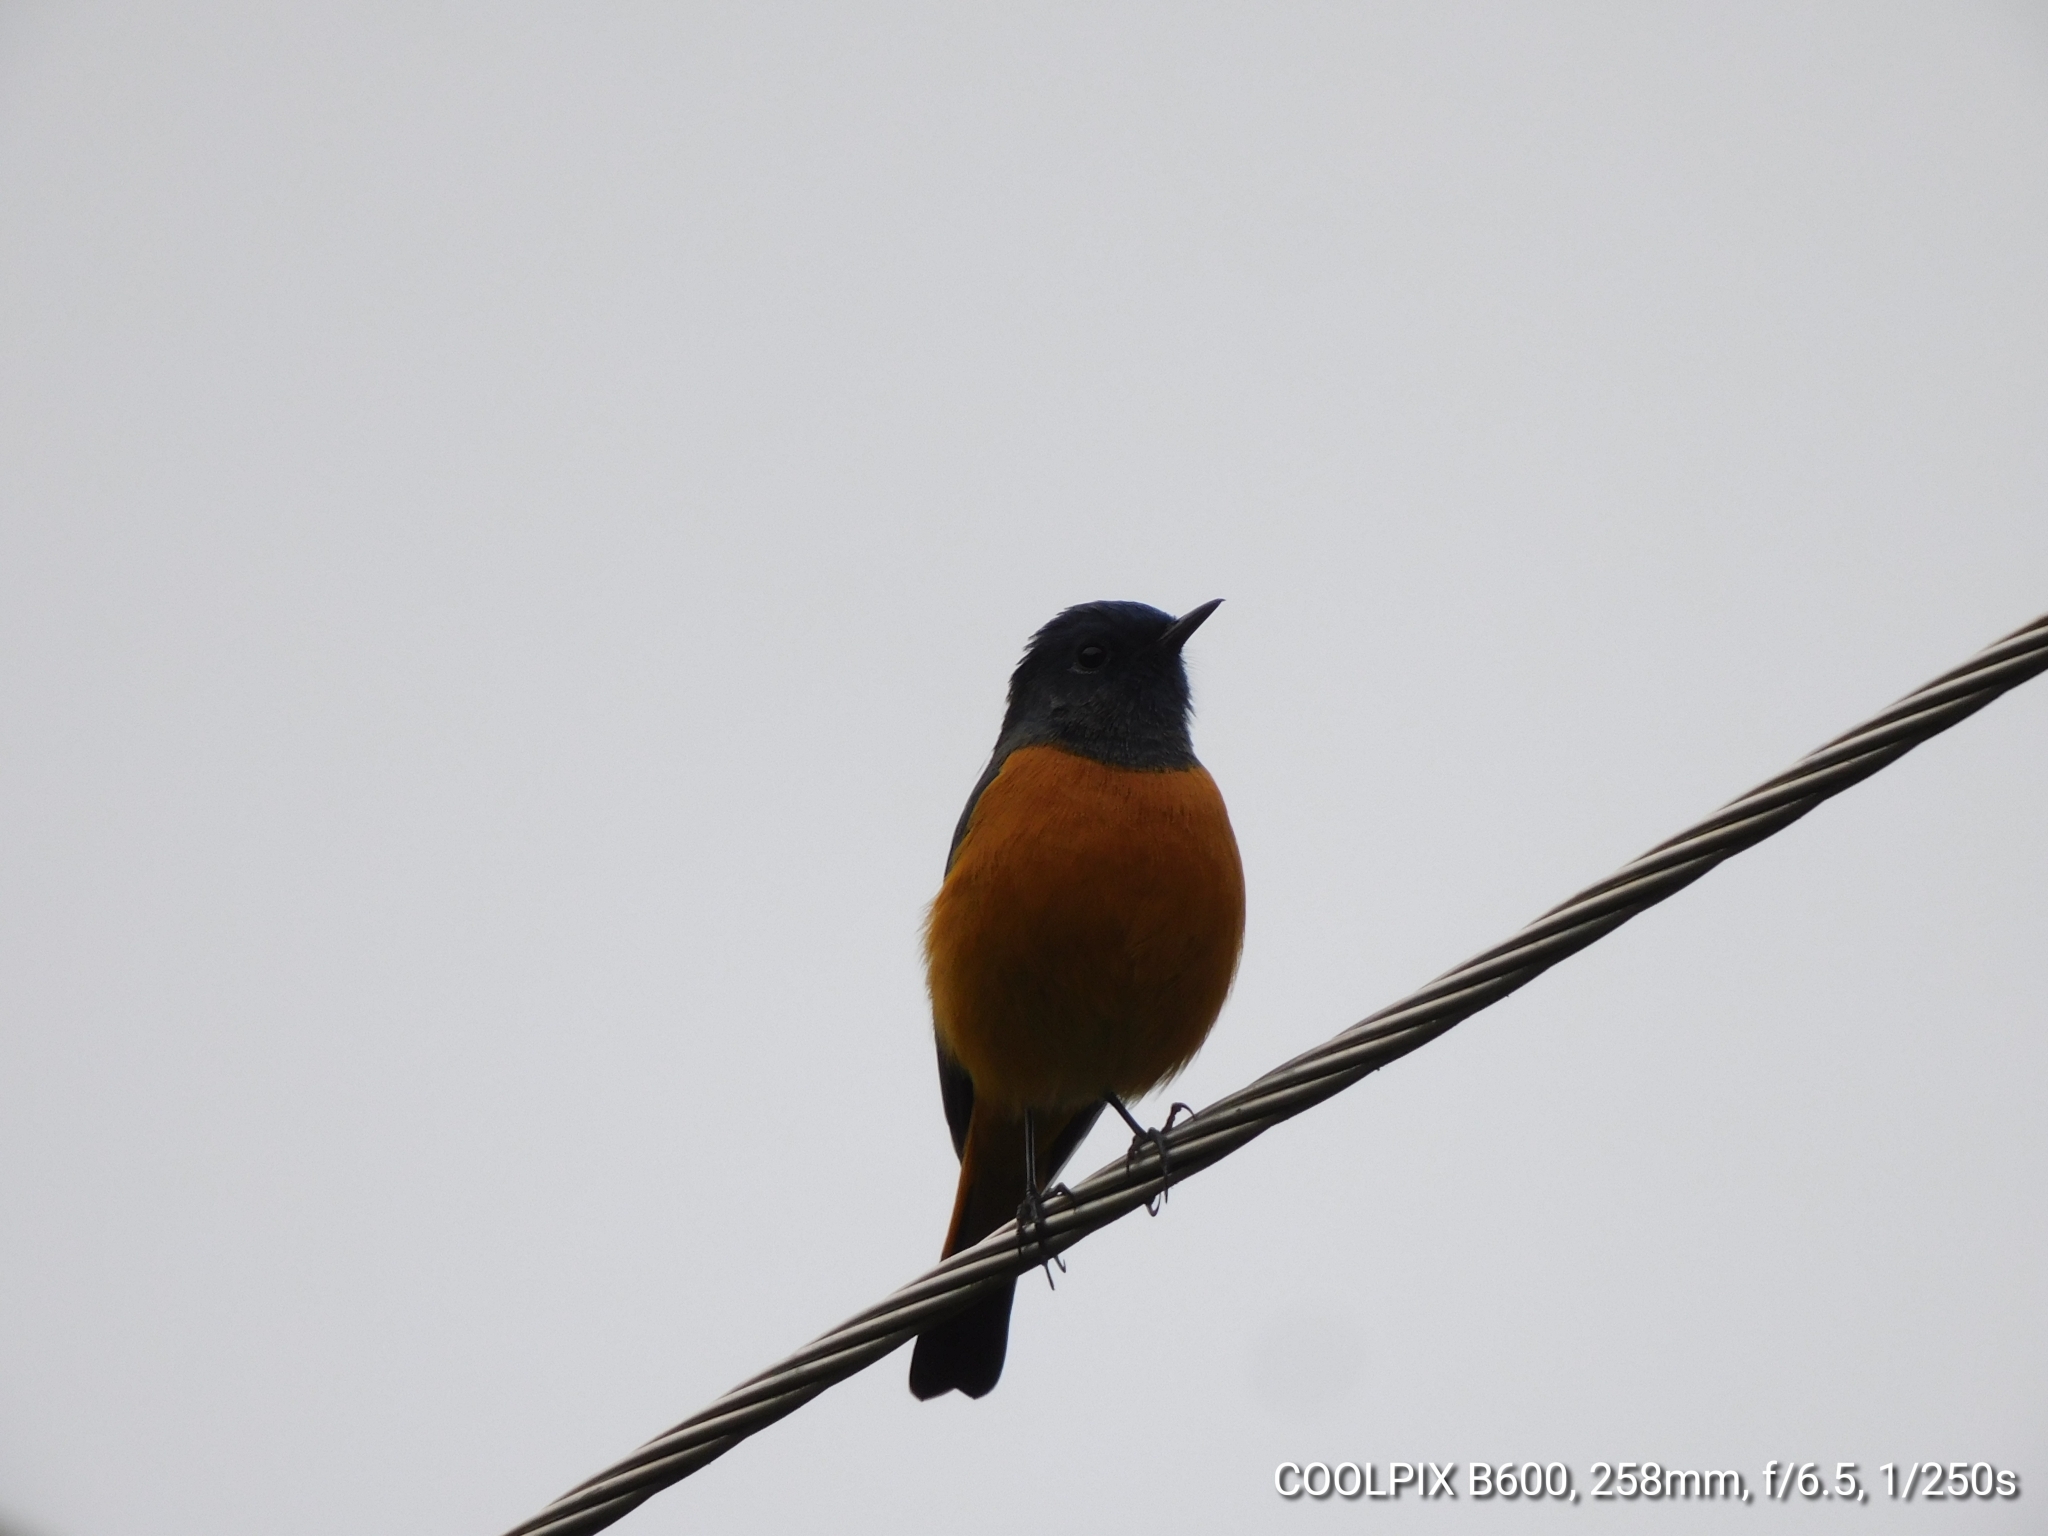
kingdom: Animalia
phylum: Chordata
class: Aves
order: Passeriformes
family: Muscicapidae
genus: Phoenicurus
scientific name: Phoenicurus frontalis
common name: Blue-fronted redstart
